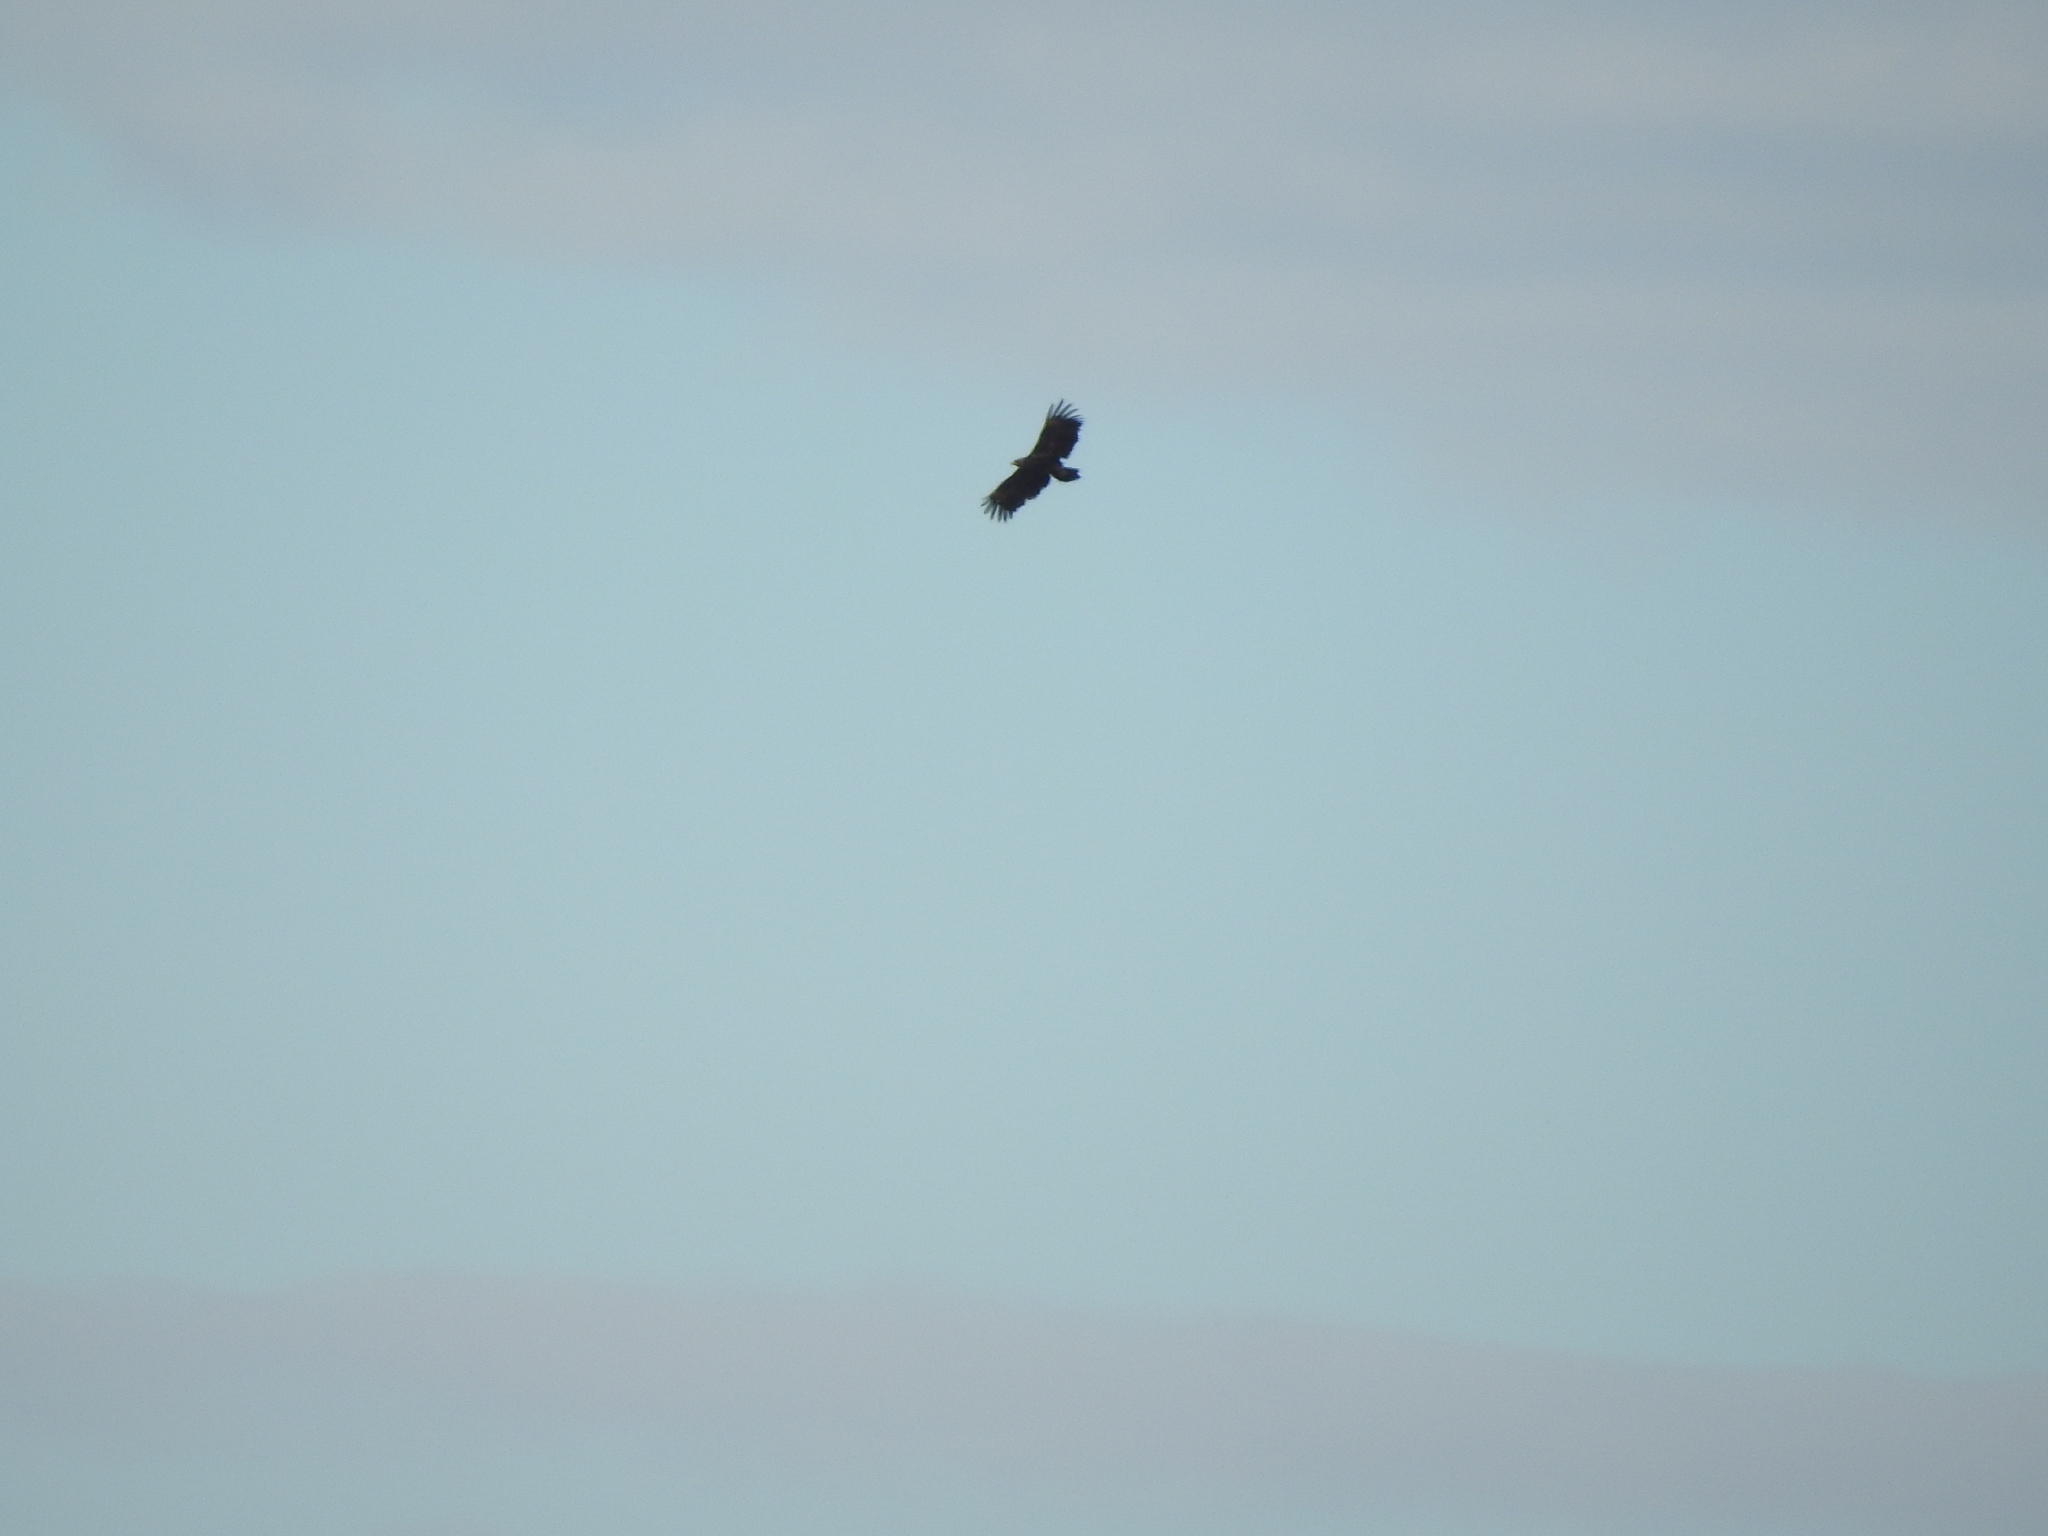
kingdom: Animalia
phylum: Chordata
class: Aves
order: Accipitriformes
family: Accipitridae
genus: Haliaeetus
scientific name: Haliaeetus albicilla
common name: White-tailed eagle
